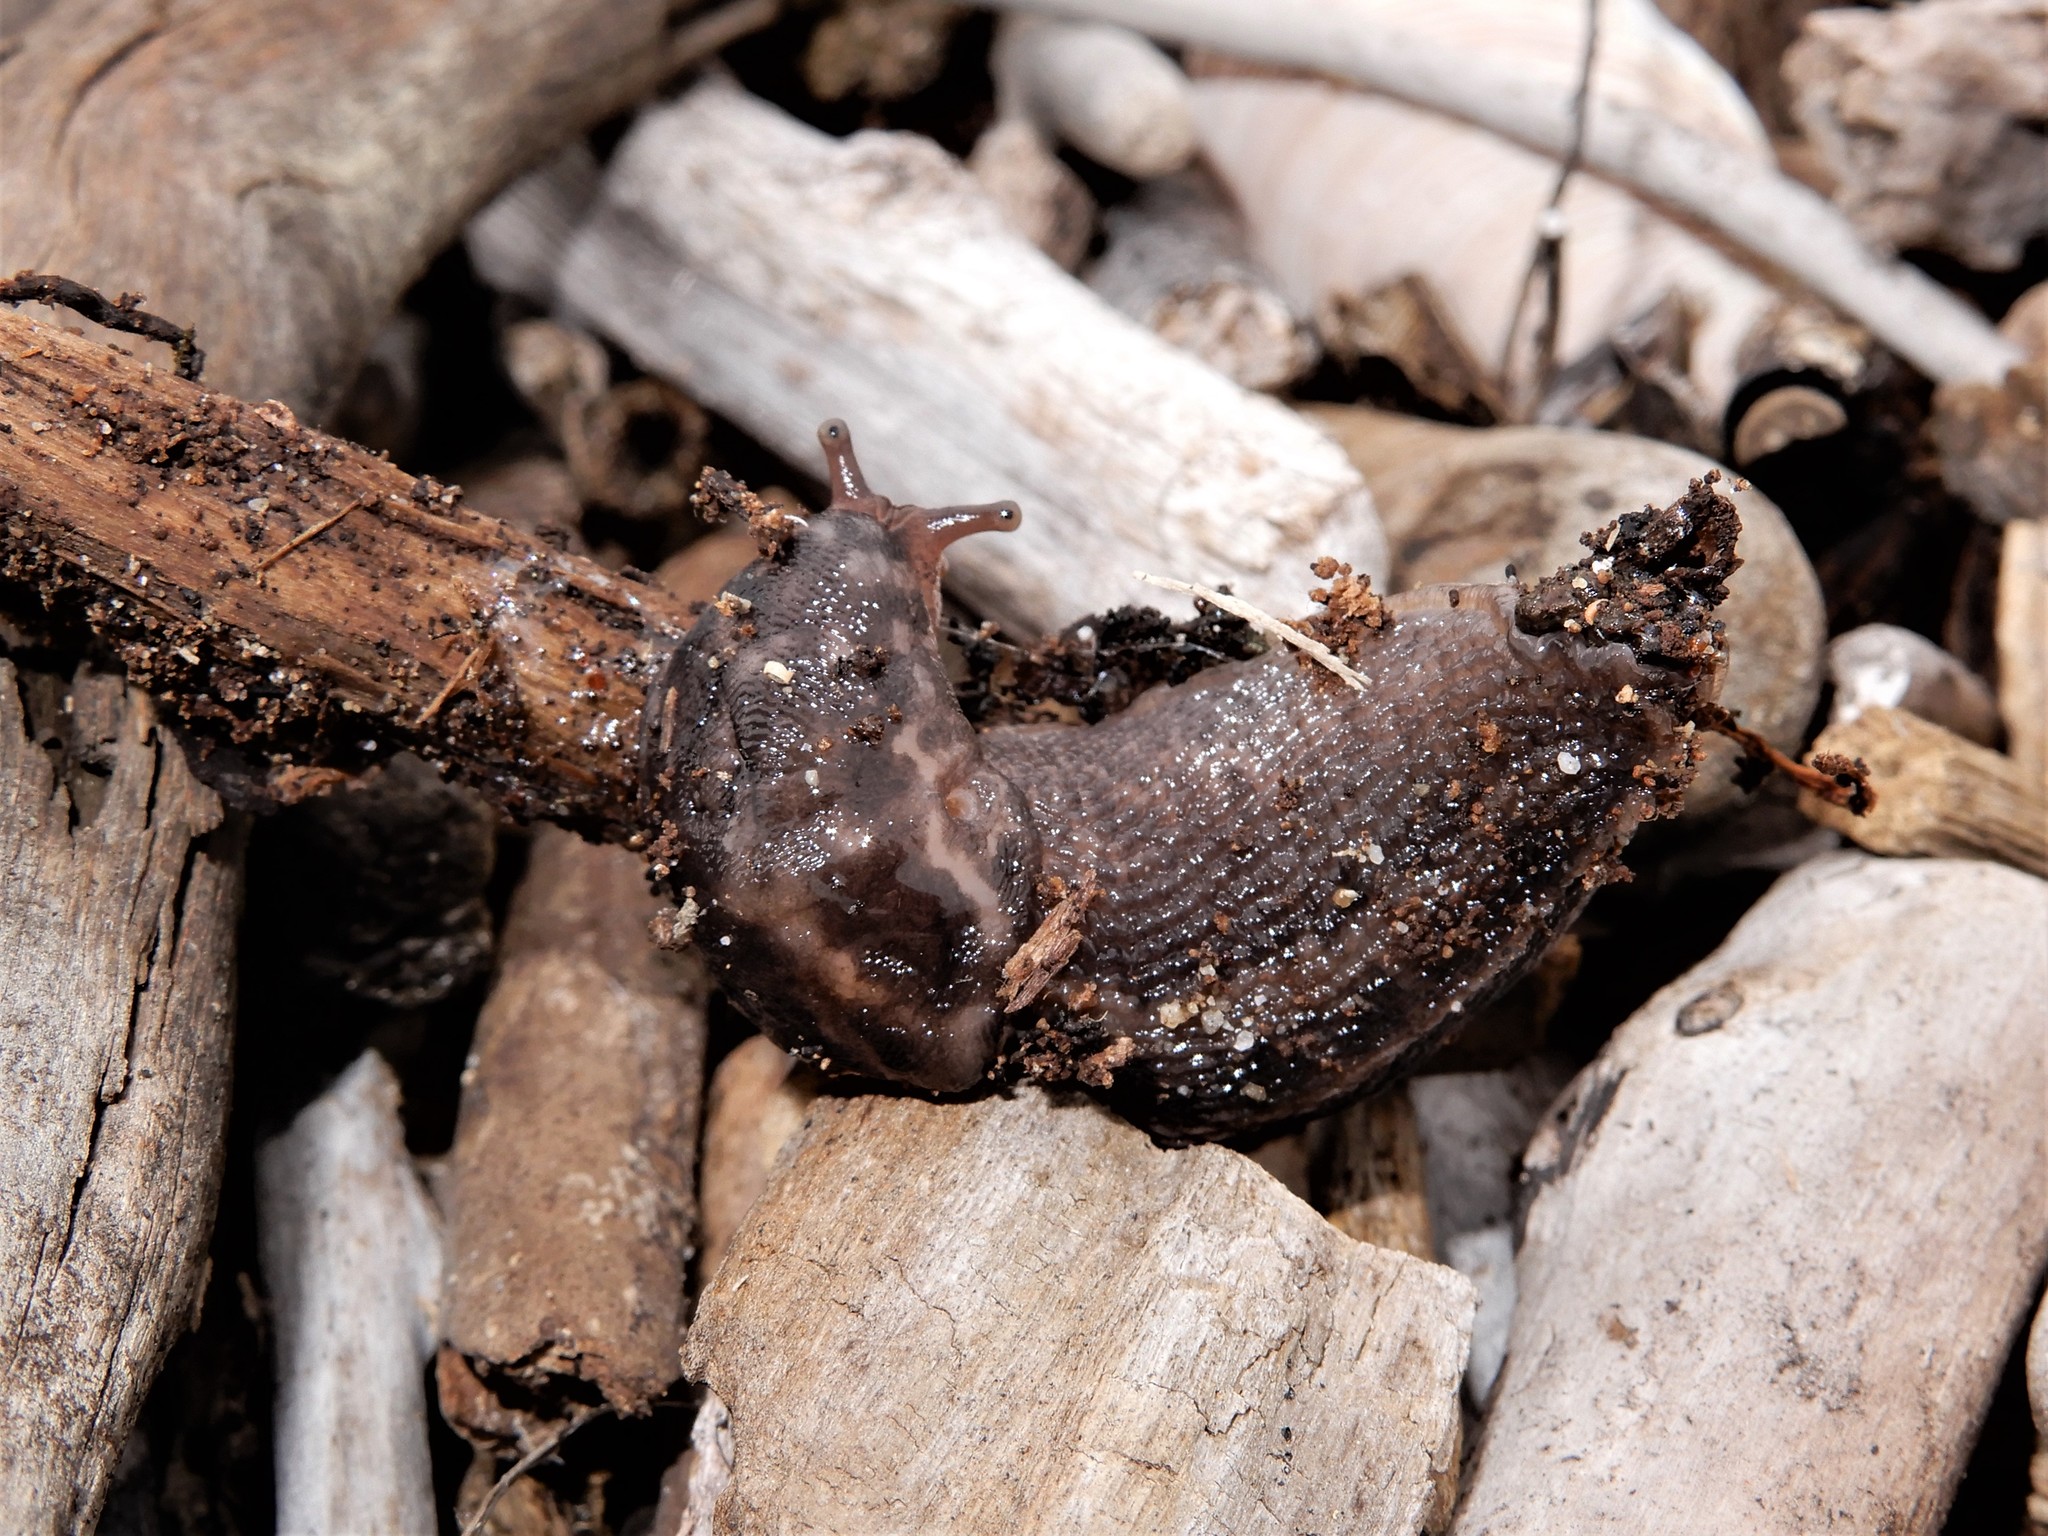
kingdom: Animalia
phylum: Mollusca
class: Gastropoda
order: Stylommatophora
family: Limacidae
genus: Limax
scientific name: Limax maximus
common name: Great grey slug
